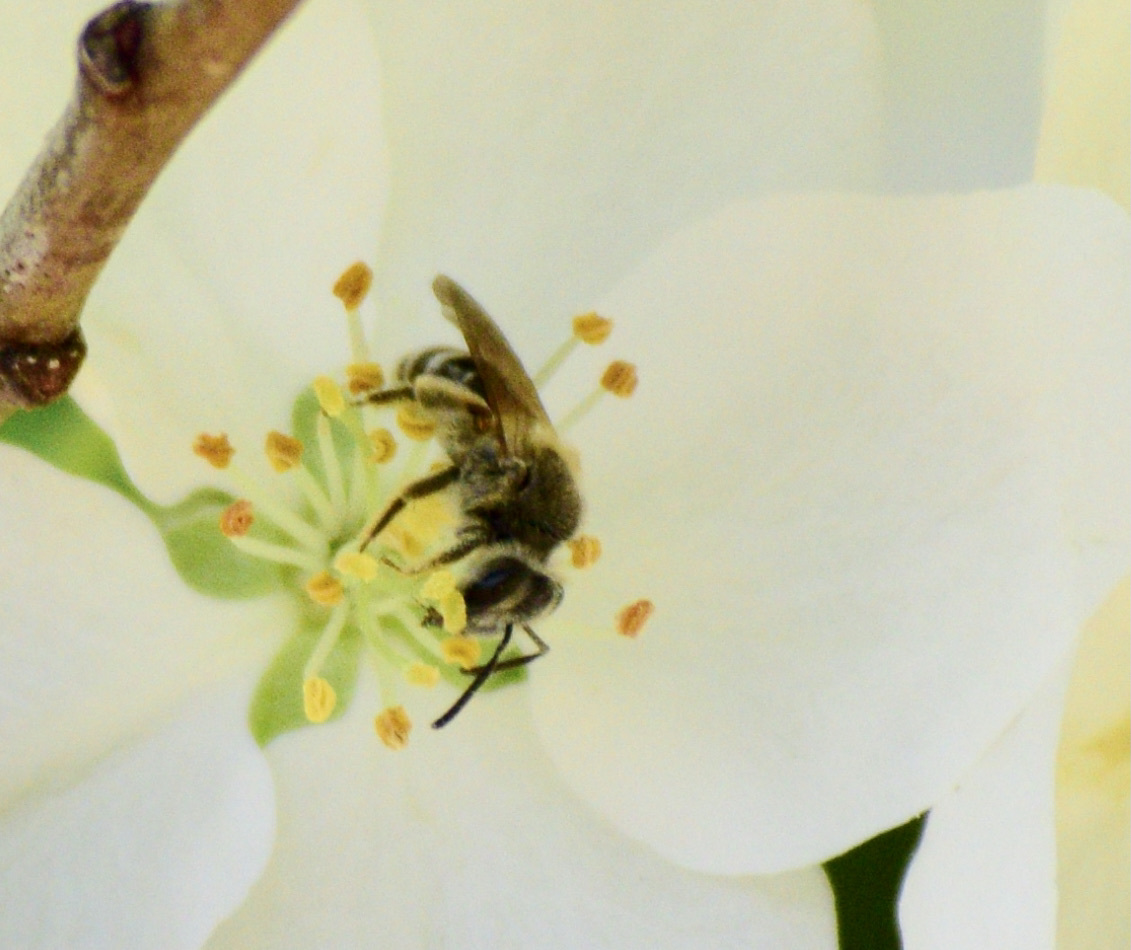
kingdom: Animalia
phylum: Arthropoda
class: Insecta
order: Hymenoptera
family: Andrenidae
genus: Andrena
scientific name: Andrena nasonii
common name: Nason's mining bee
